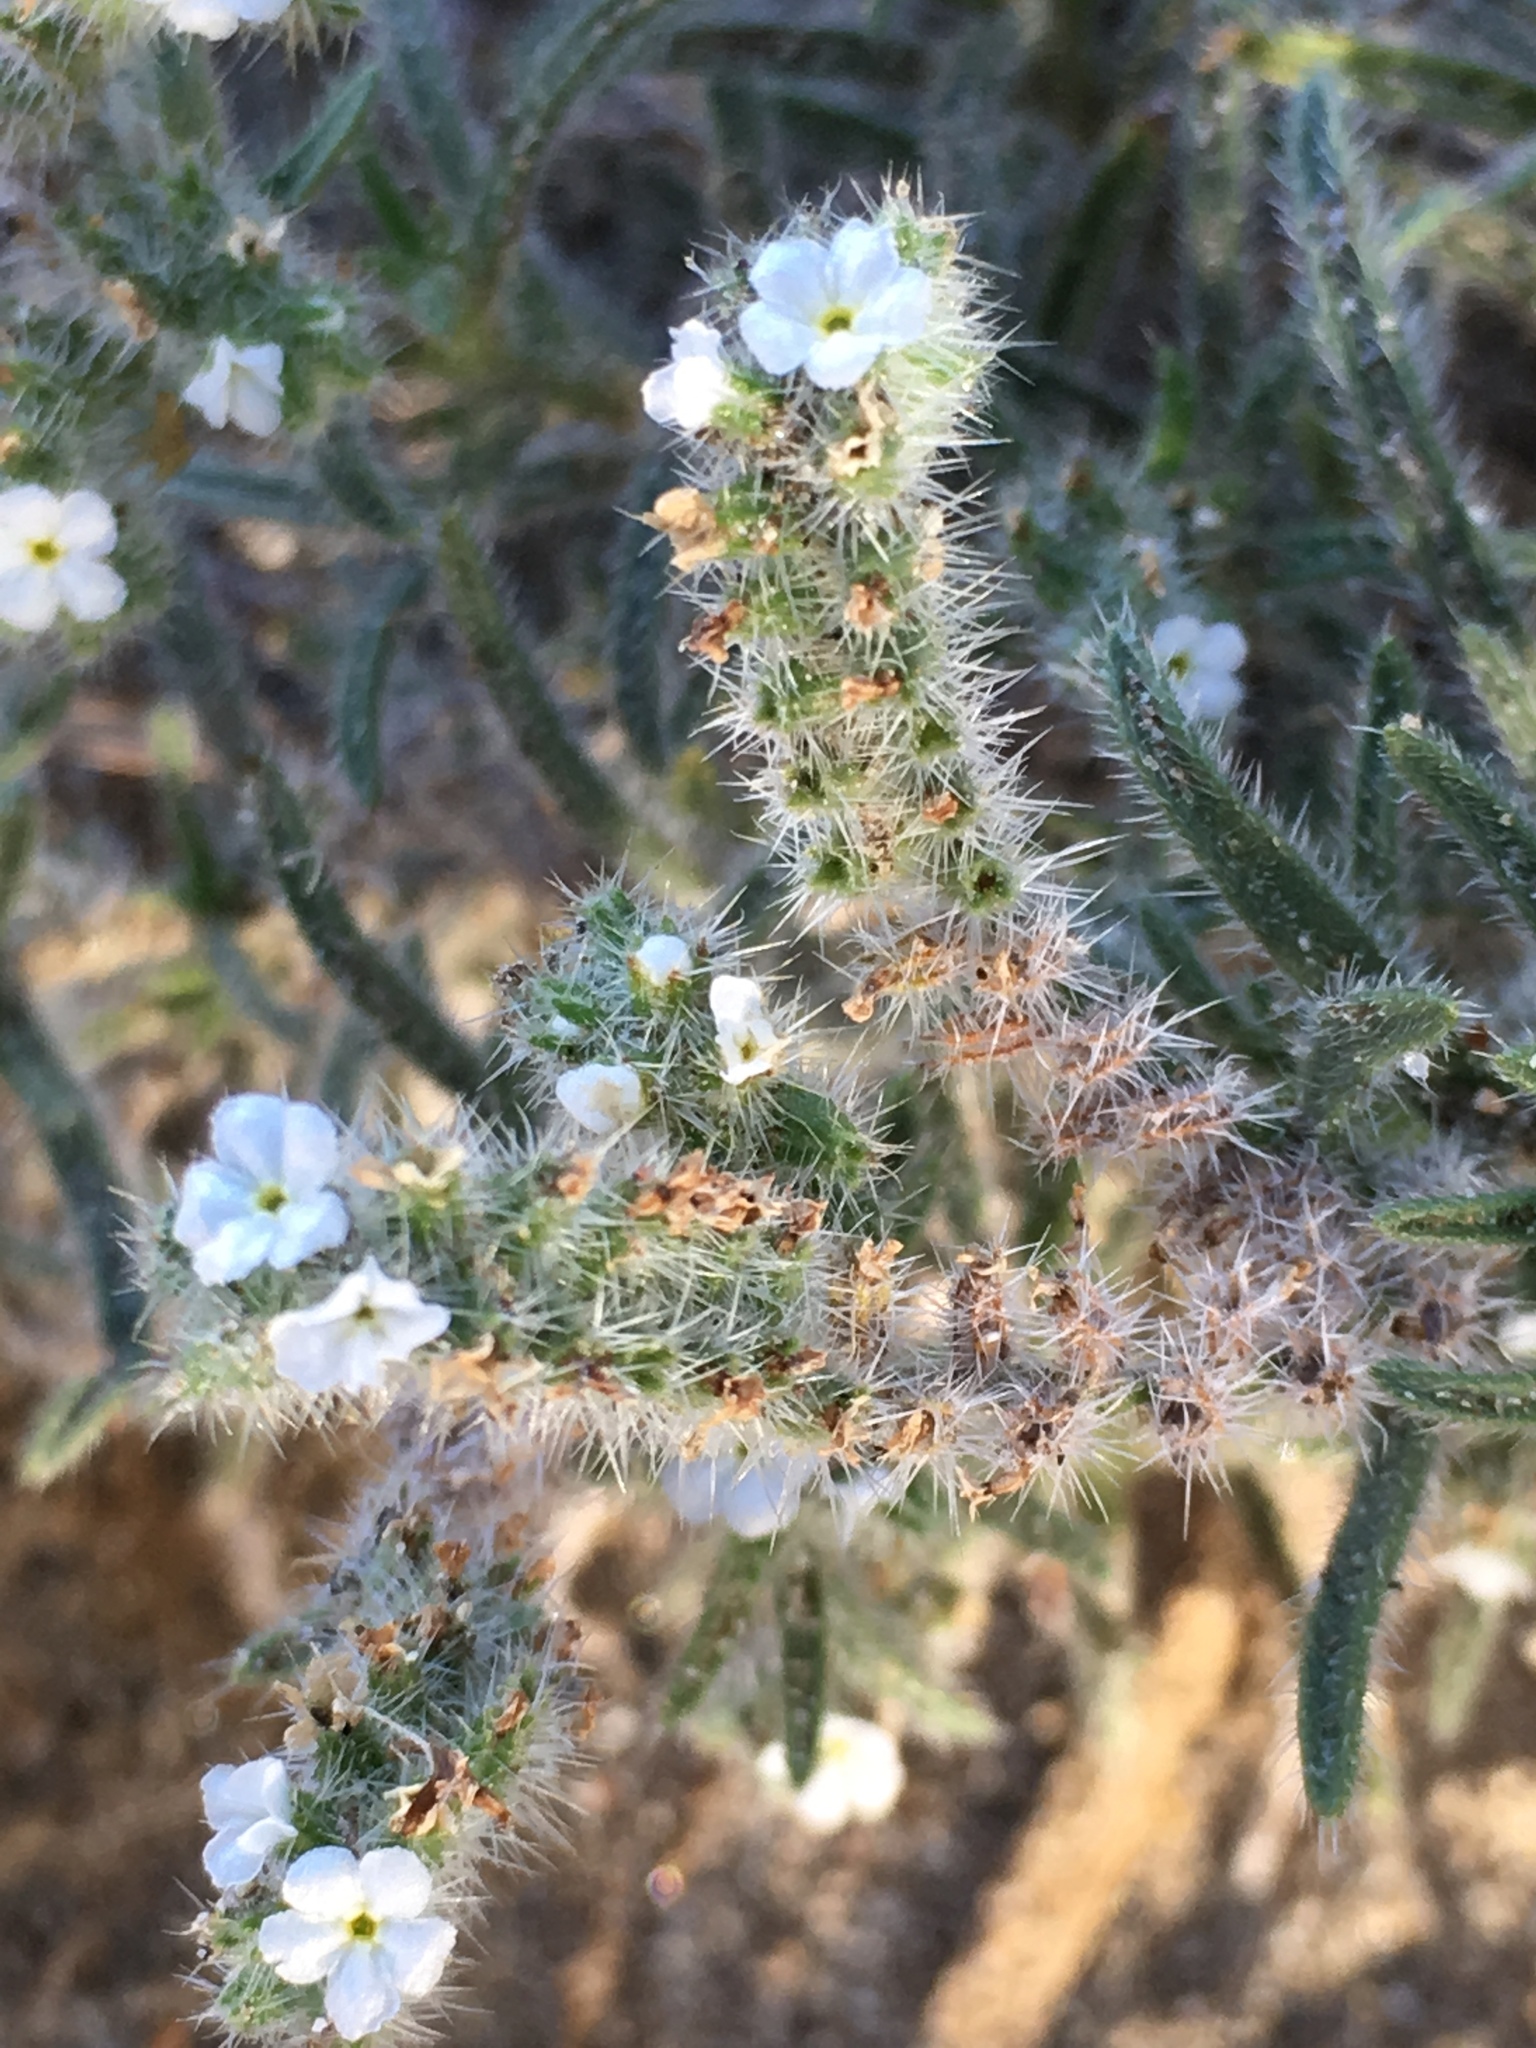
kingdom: Plantae
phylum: Tracheophyta
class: Magnoliopsida
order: Boraginales
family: Boraginaceae
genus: Johnstonella
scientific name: Johnstonella angustifolia
